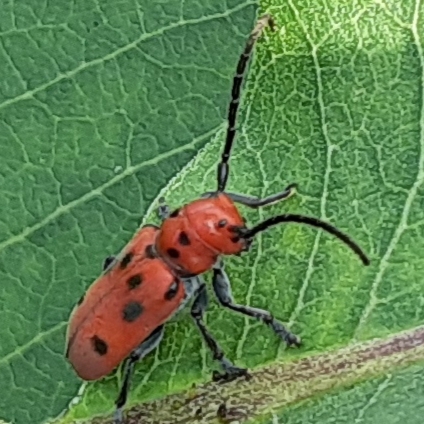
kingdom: Animalia
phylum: Arthropoda
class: Insecta
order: Coleoptera
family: Cerambycidae
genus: Tetraopes
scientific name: Tetraopes tetrophthalmus
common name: Red milkweed beetle
